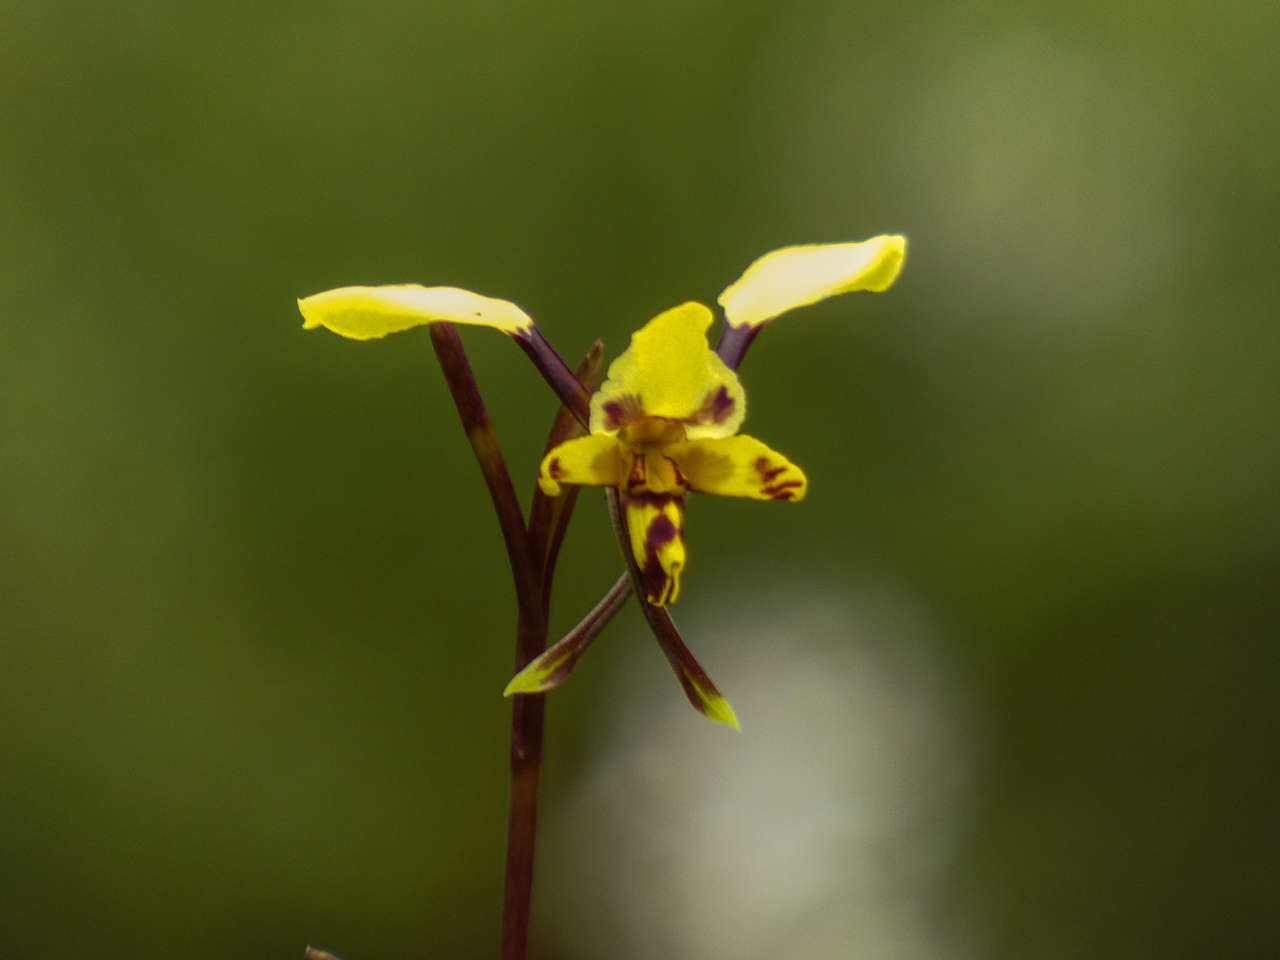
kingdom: Plantae
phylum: Tracheophyta
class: Liliopsida
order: Asparagales
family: Orchidaceae
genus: Diuris
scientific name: Diuris pardina
